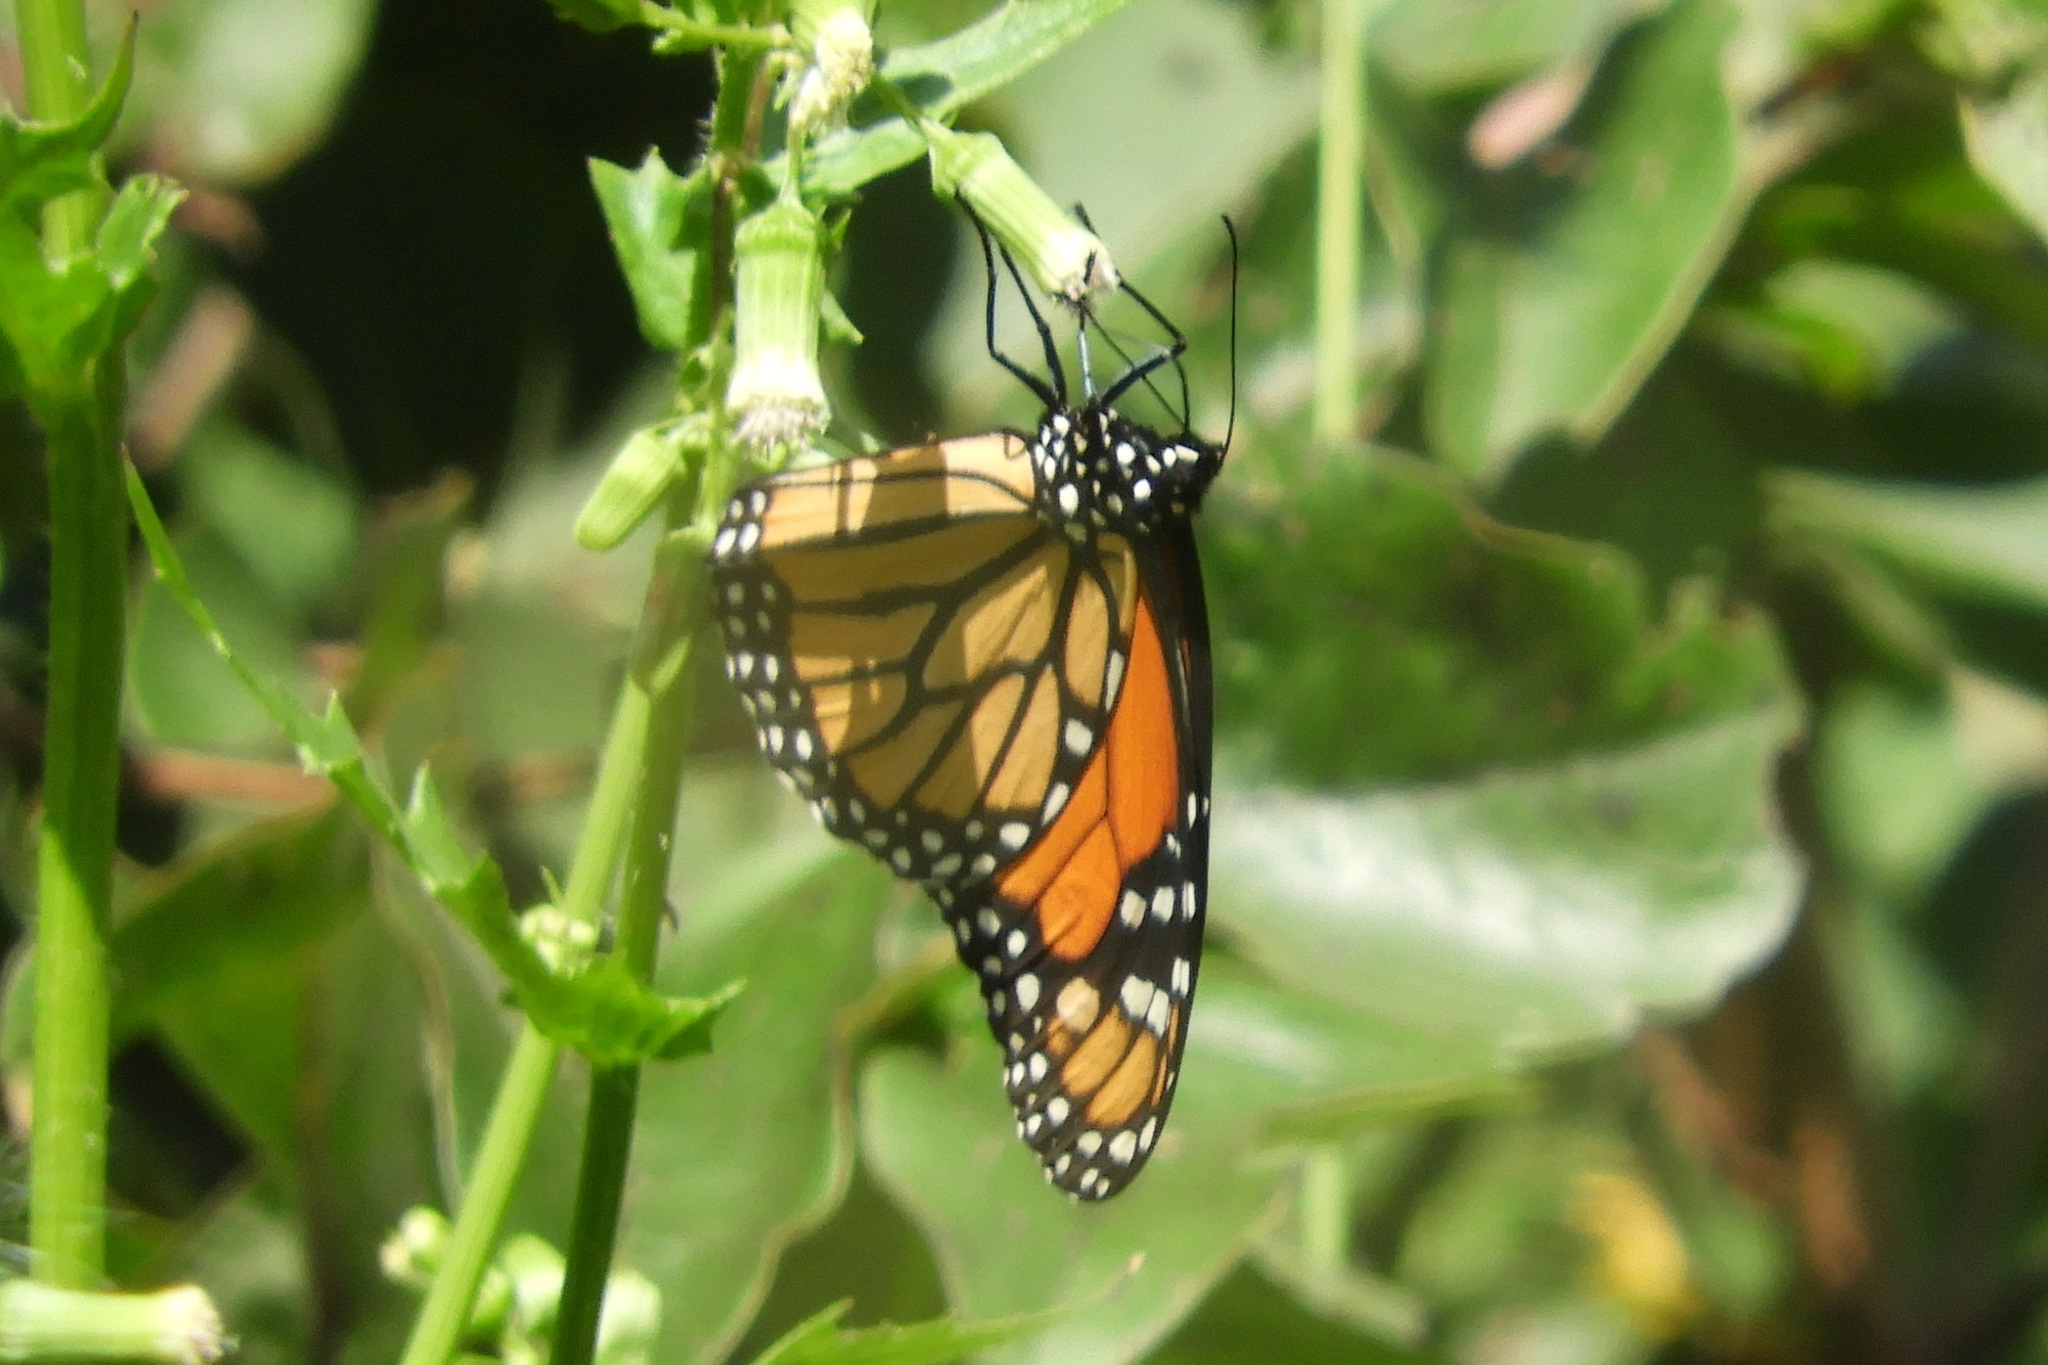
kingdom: Animalia
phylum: Arthropoda
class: Insecta
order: Lepidoptera
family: Nymphalidae
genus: Danaus
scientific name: Danaus plexippus
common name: Monarch
